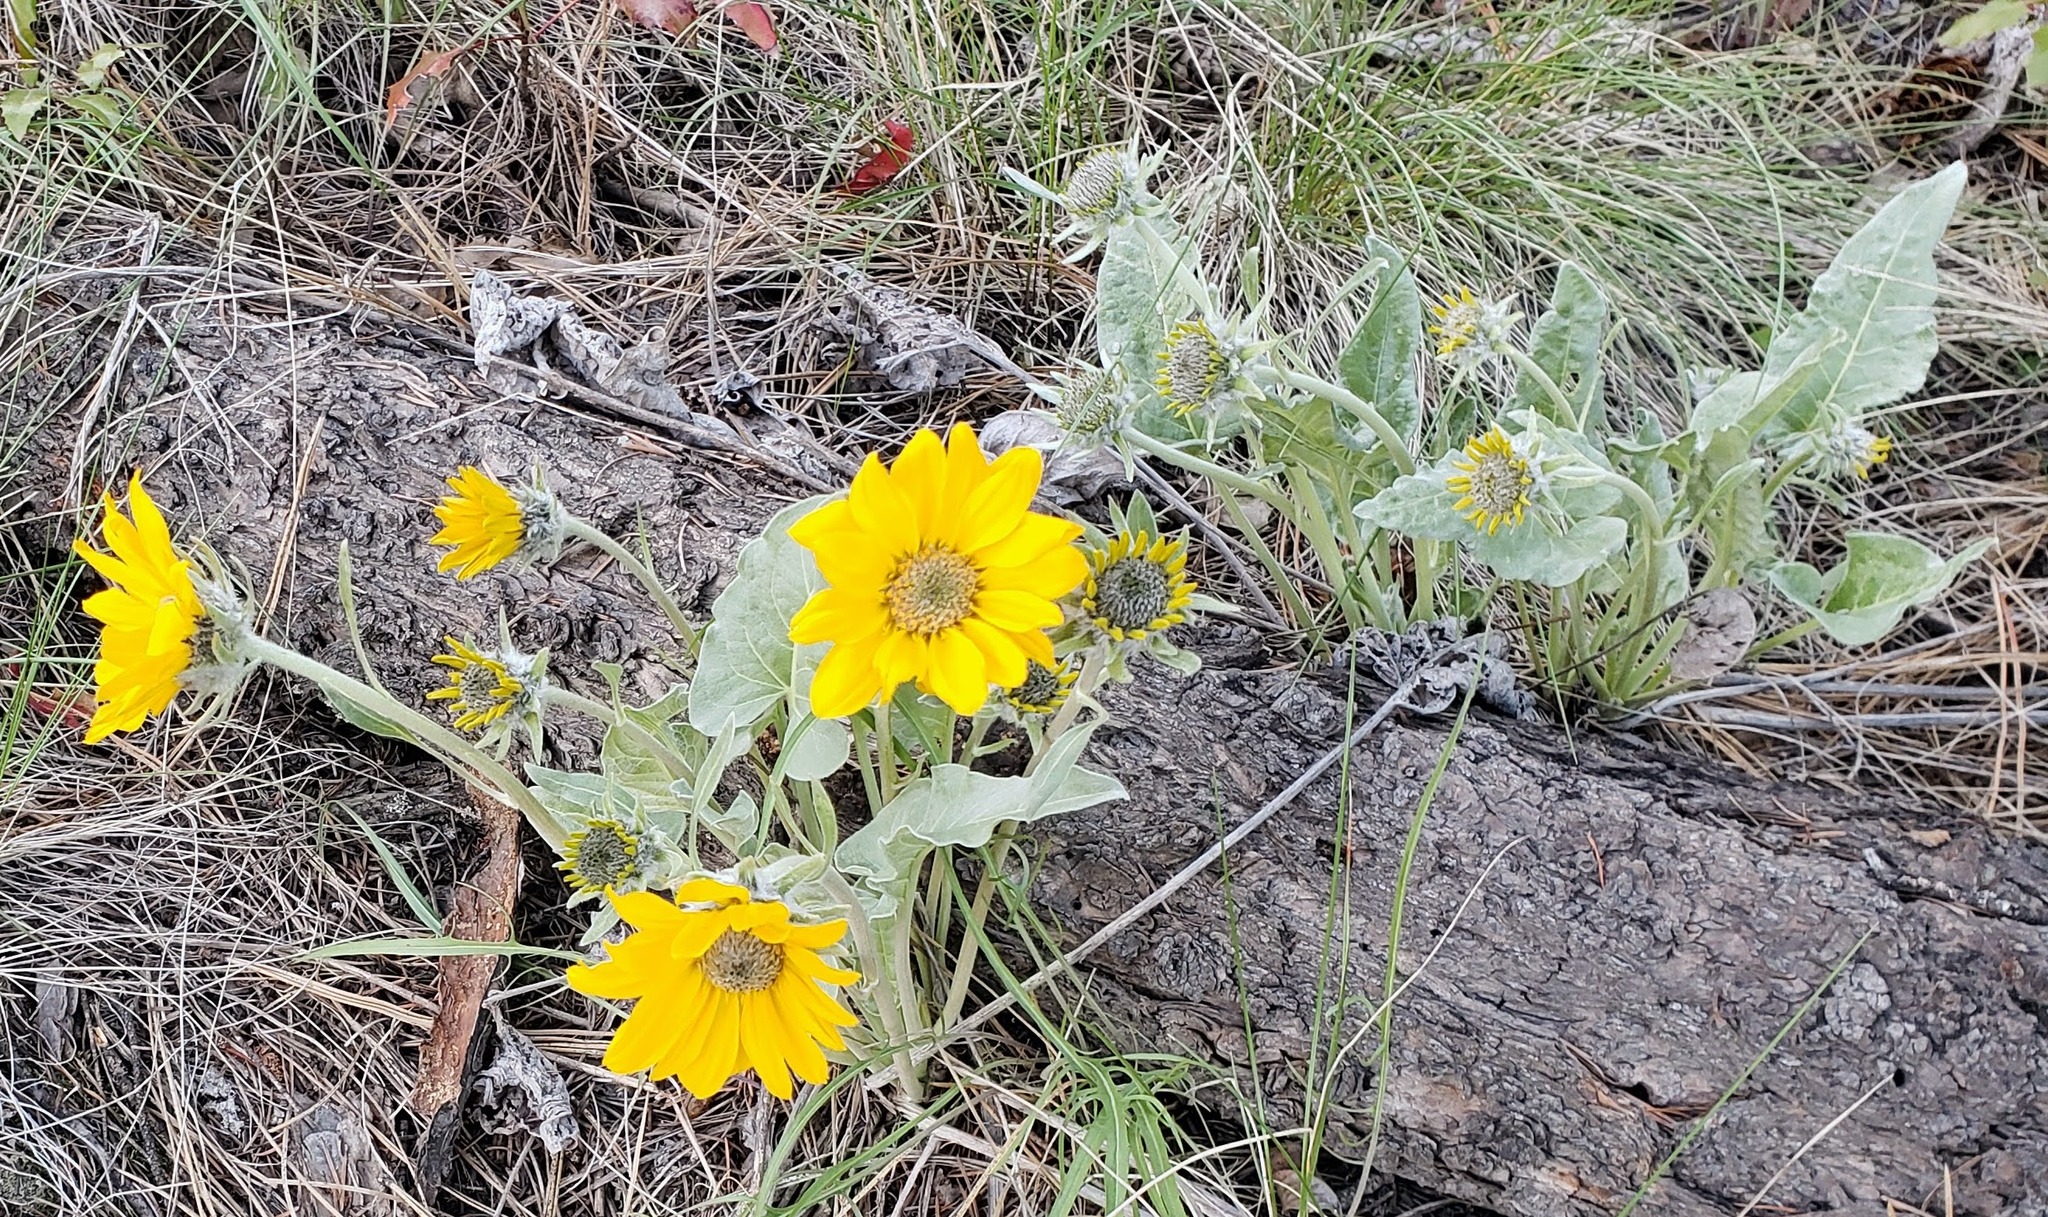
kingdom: Plantae
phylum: Tracheophyta
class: Magnoliopsida
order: Asterales
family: Asteraceae
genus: Wyethia
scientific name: Wyethia sagittata
